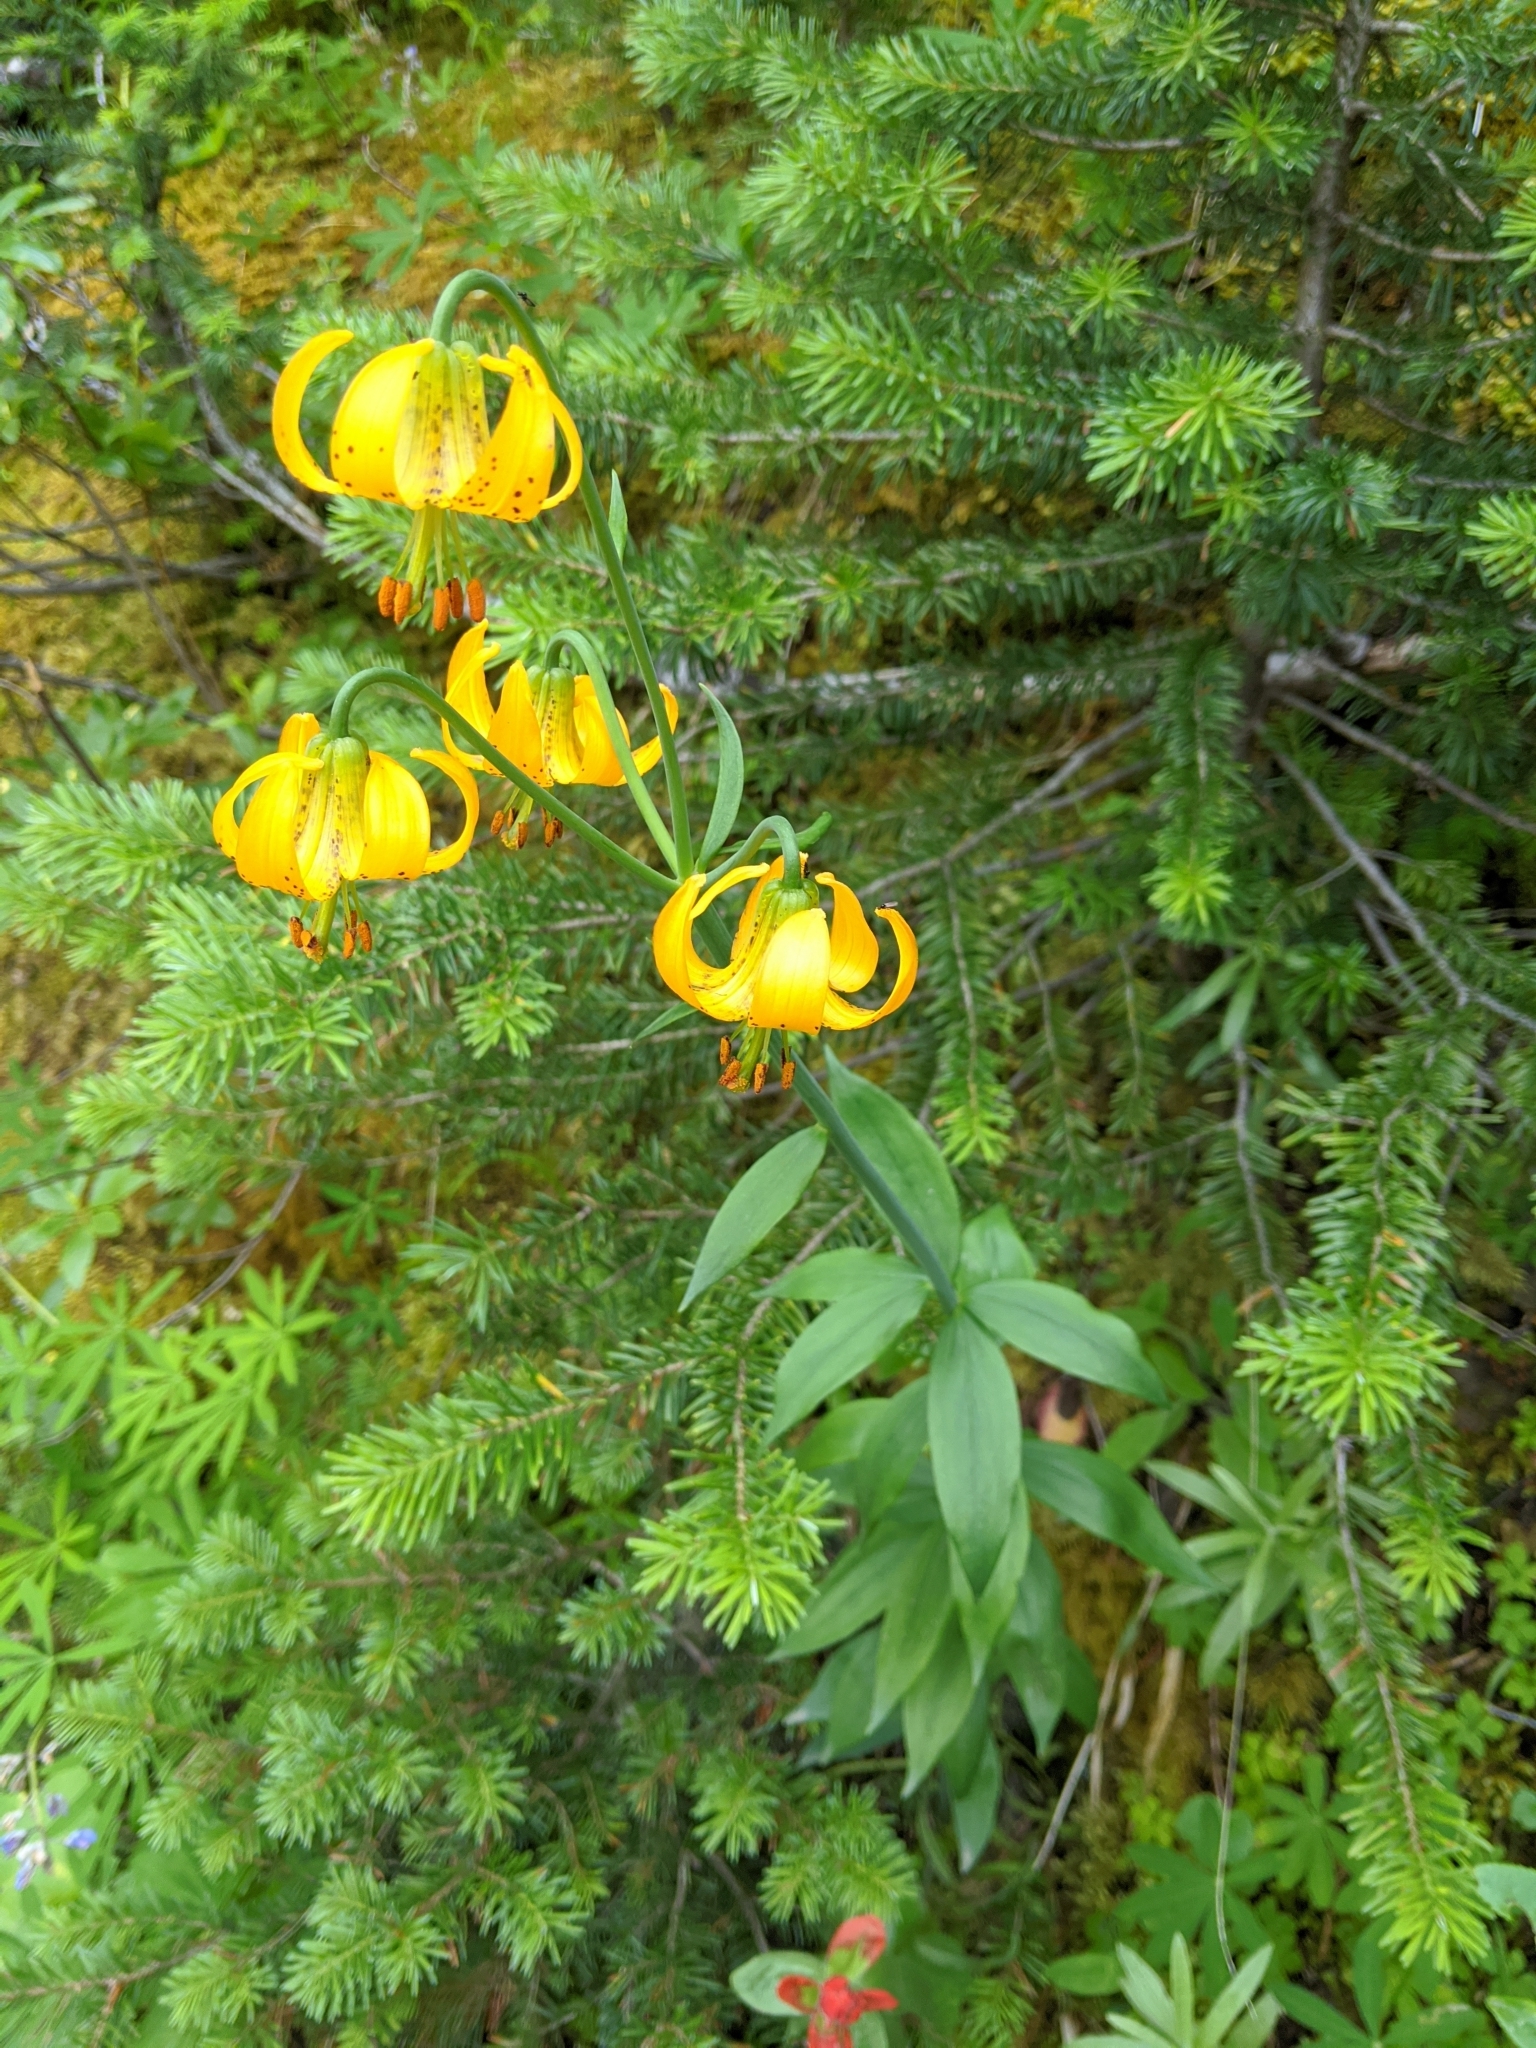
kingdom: Plantae
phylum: Tracheophyta
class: Liliopsida
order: Liliales
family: Liliaceae
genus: Lilium
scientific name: Lilium columbianum
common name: Columbia lily
